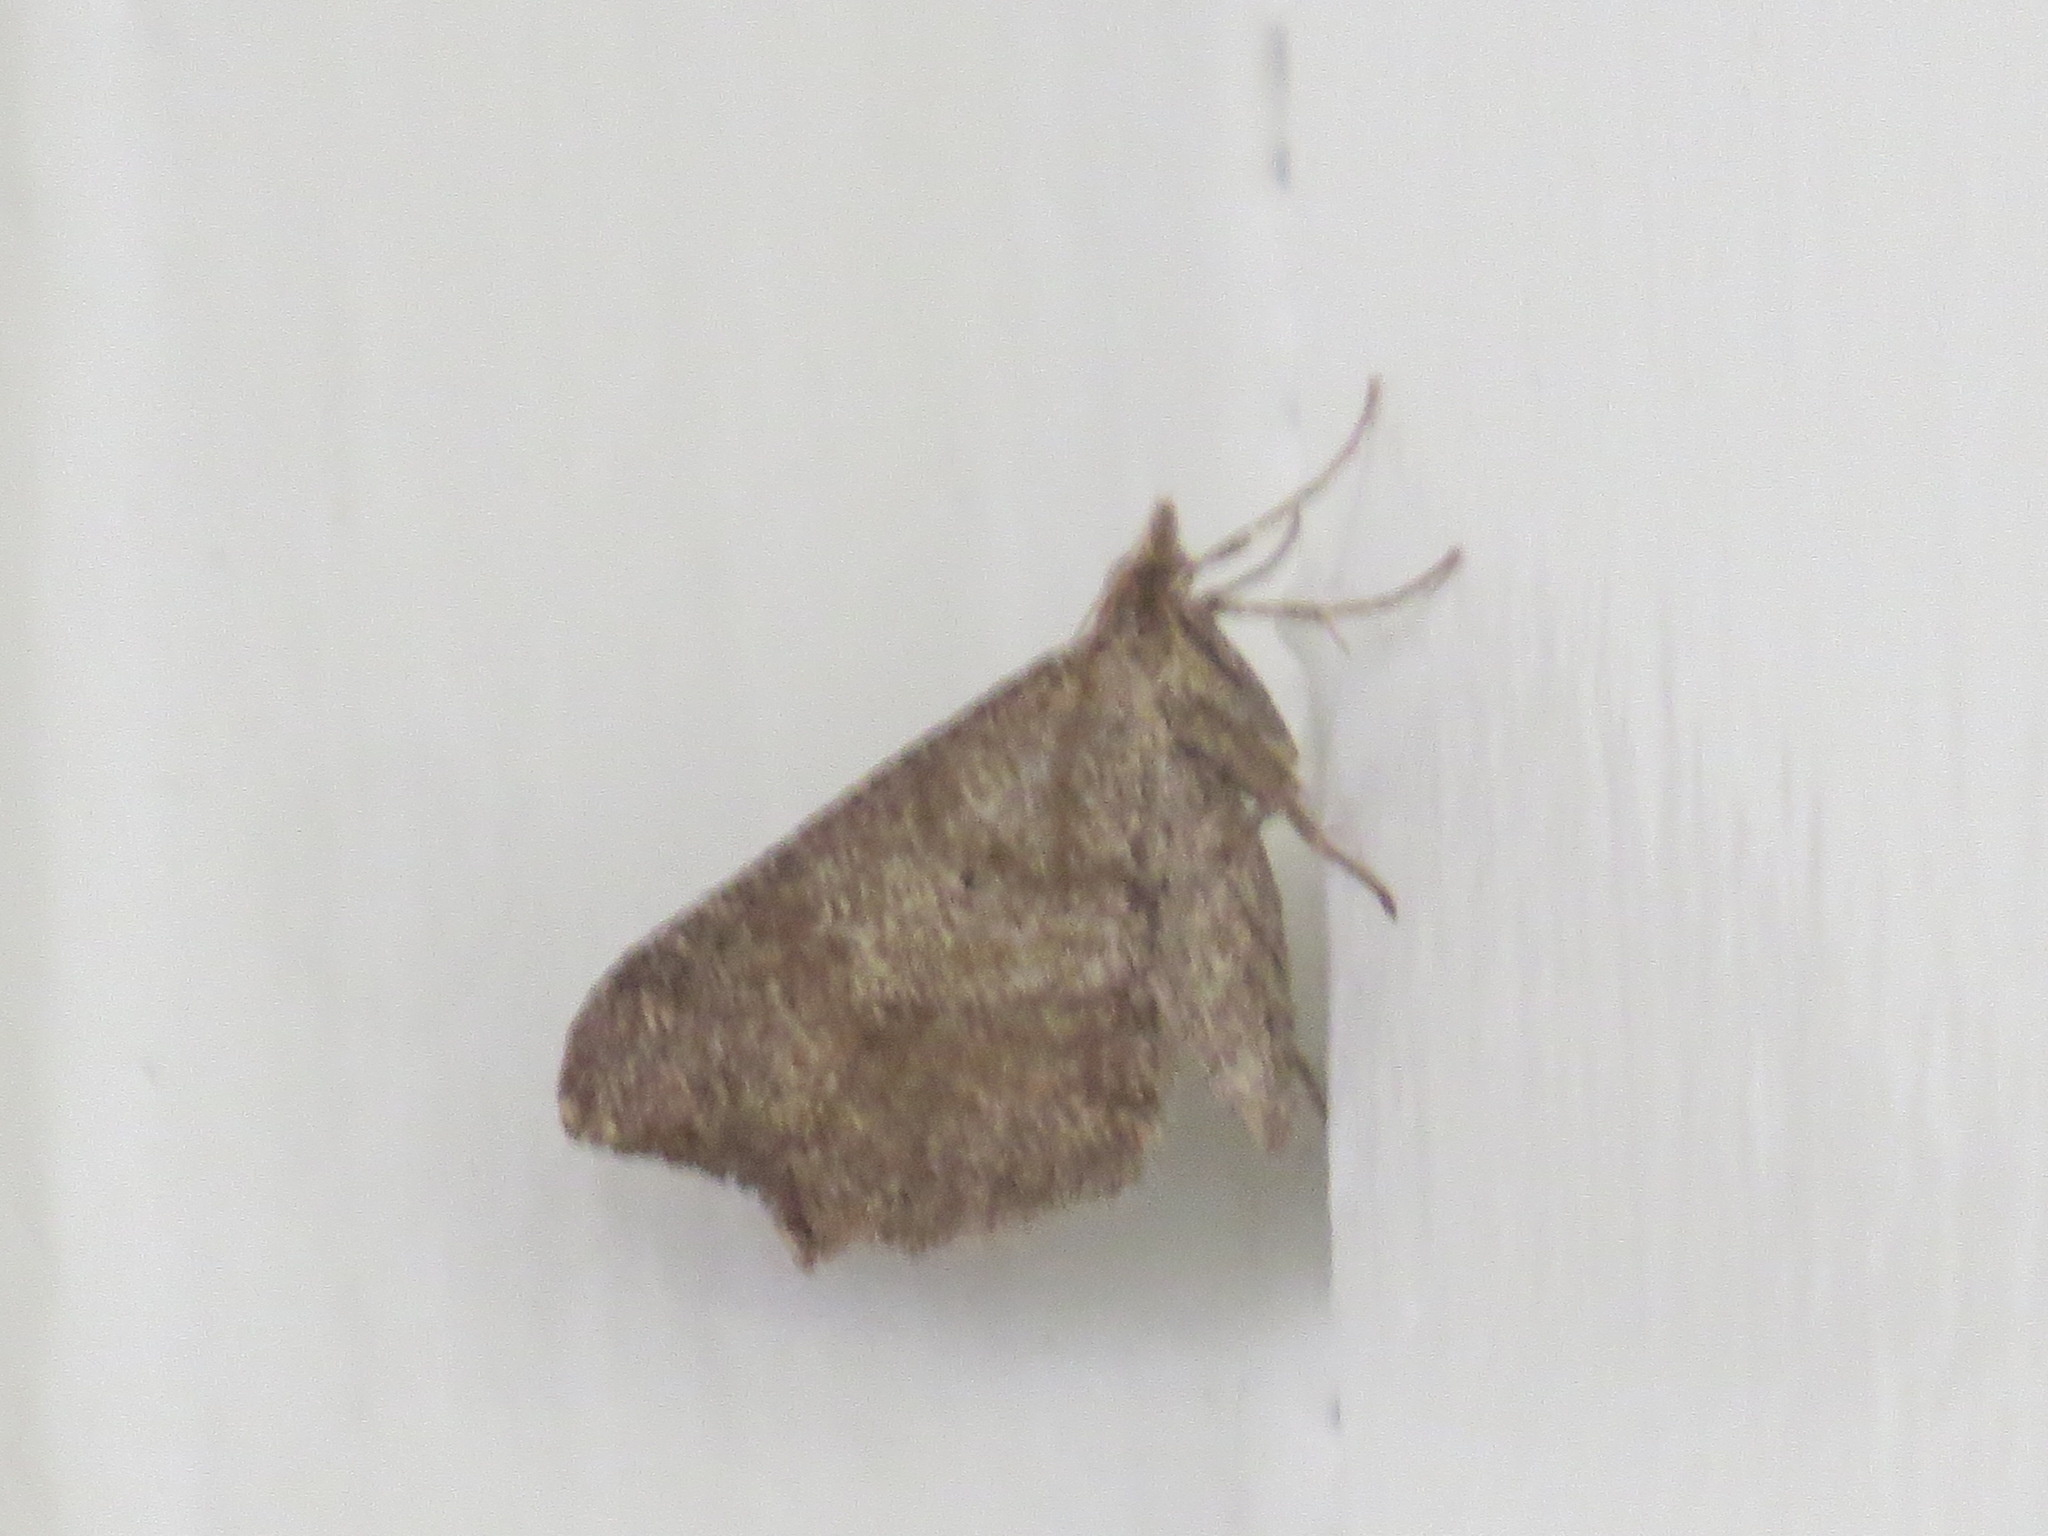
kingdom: Animalia
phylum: Arthropoda
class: Insecta
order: Lepidoptera
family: Geometridae
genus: Macaria
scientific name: Macaria marcescaria
